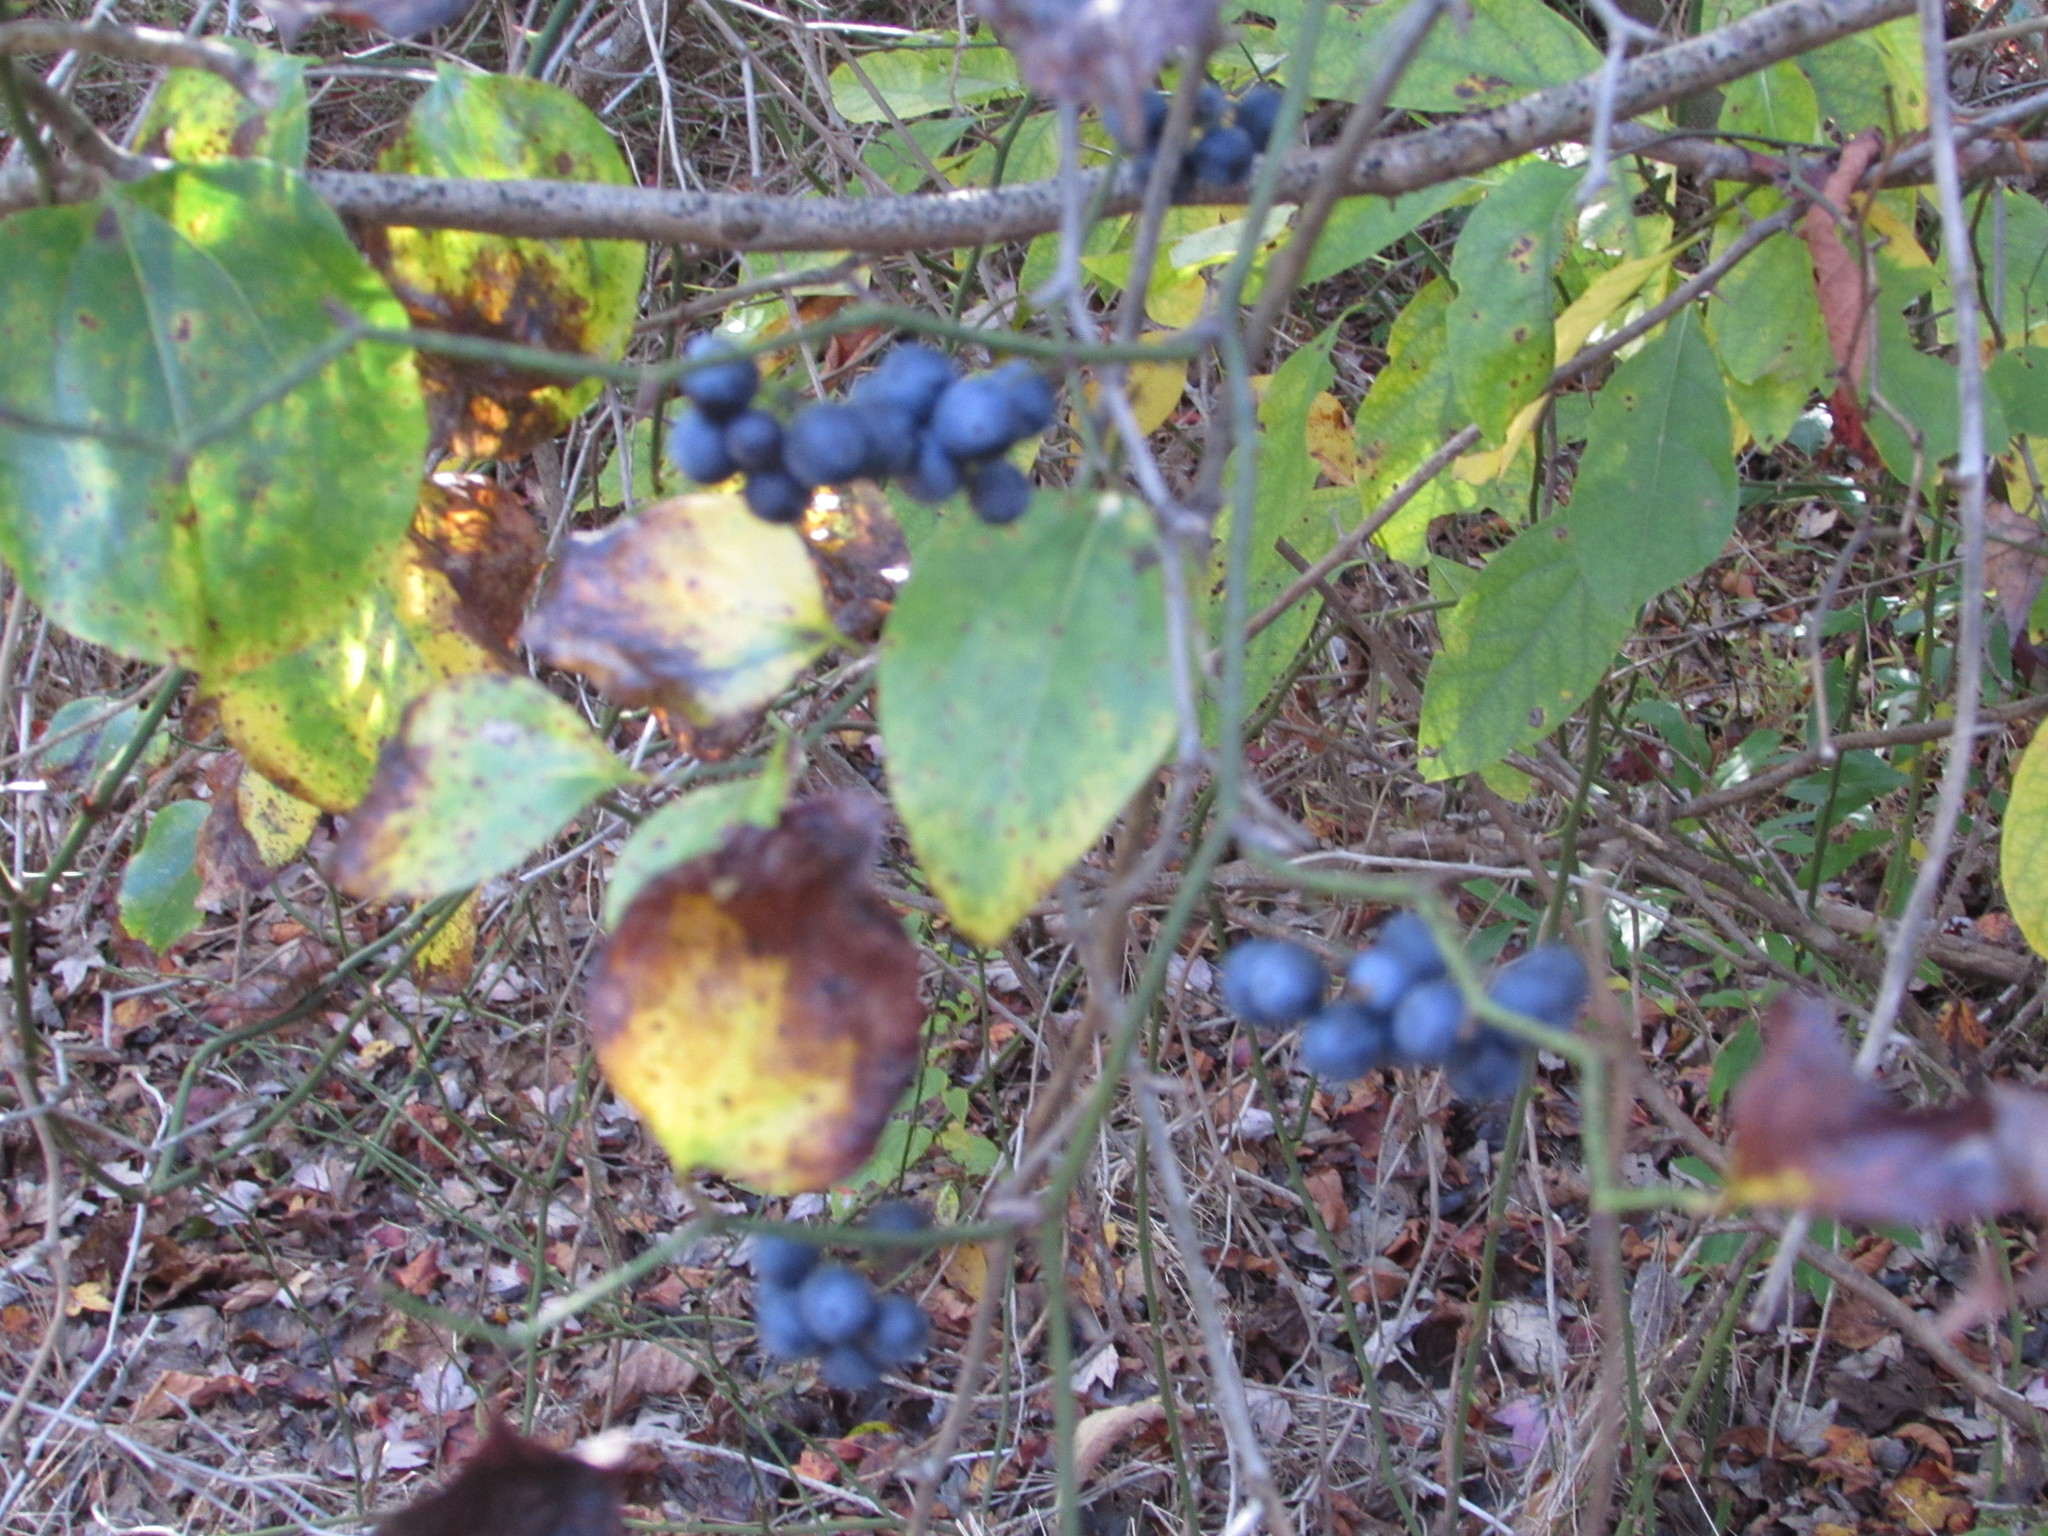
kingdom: Plantae
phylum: Tracheophyta
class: Liliopsida
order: Liliales
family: Smilacaceae
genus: Smilax
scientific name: Smilax rotundifolia
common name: Bullbriar
